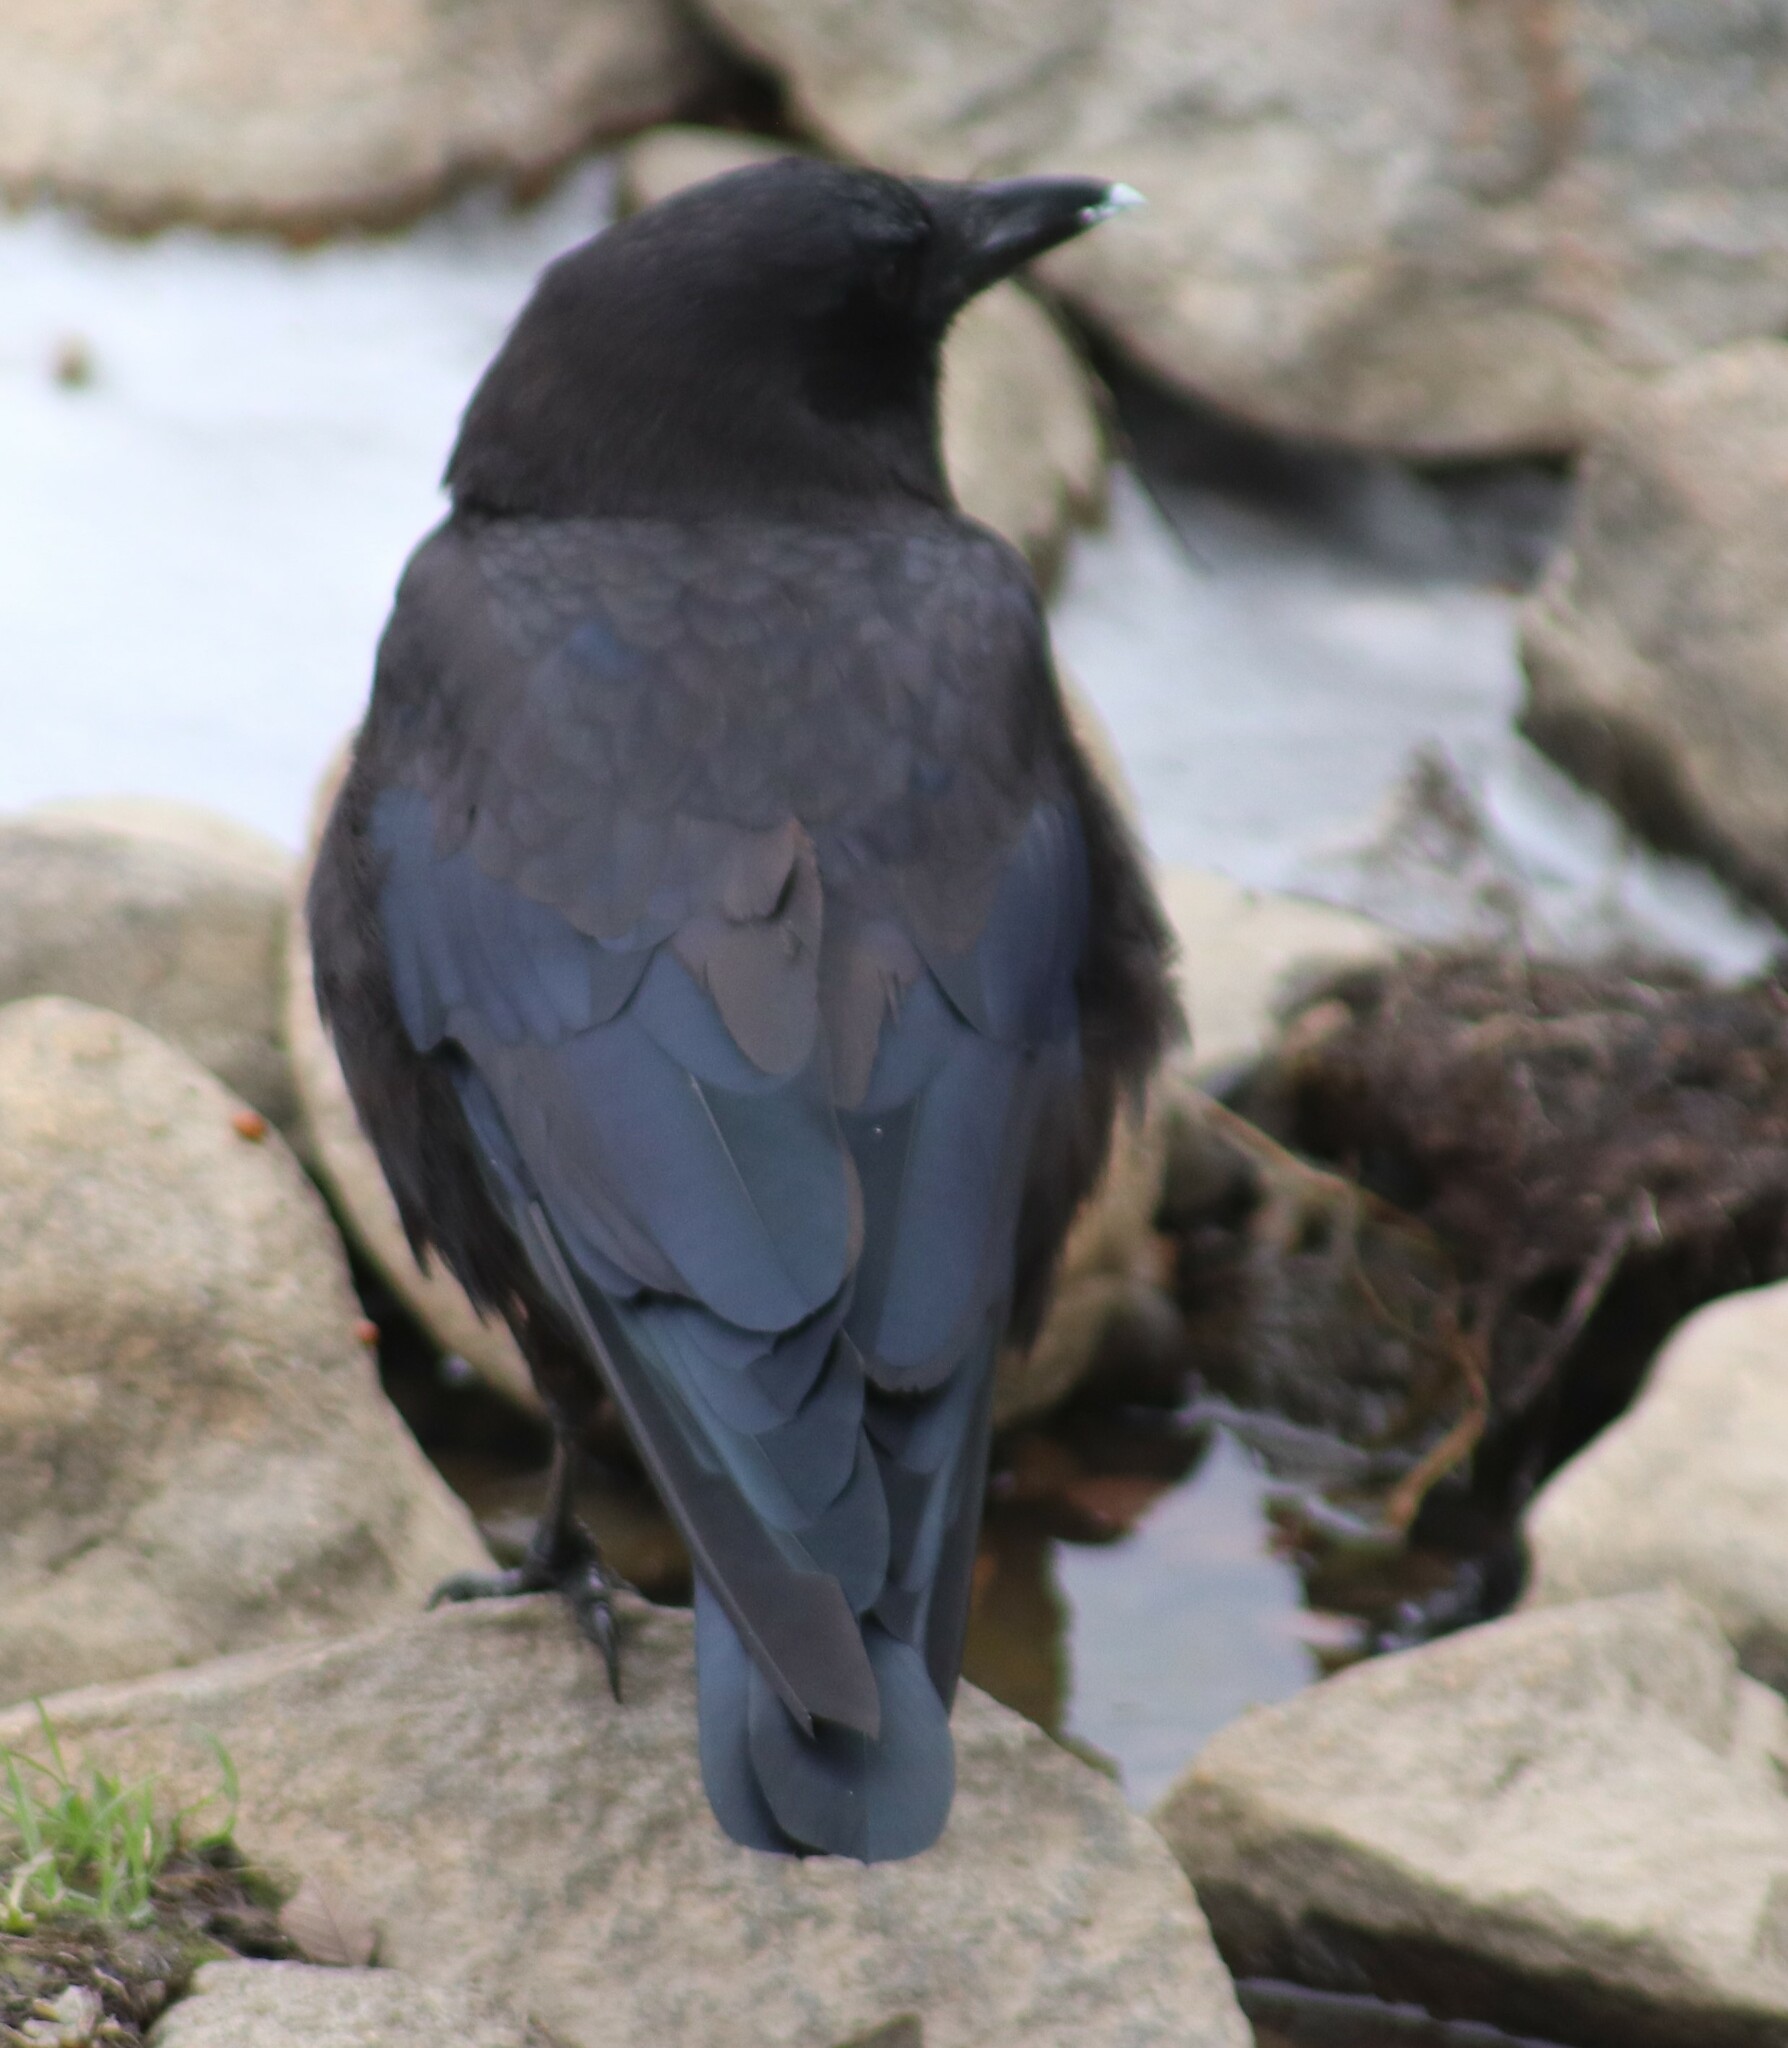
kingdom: Animalia
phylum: Chordata
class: Aves
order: Passeriformes
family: Corvidae
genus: Corvus
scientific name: Corvus brachyrhynchos
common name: American crow
